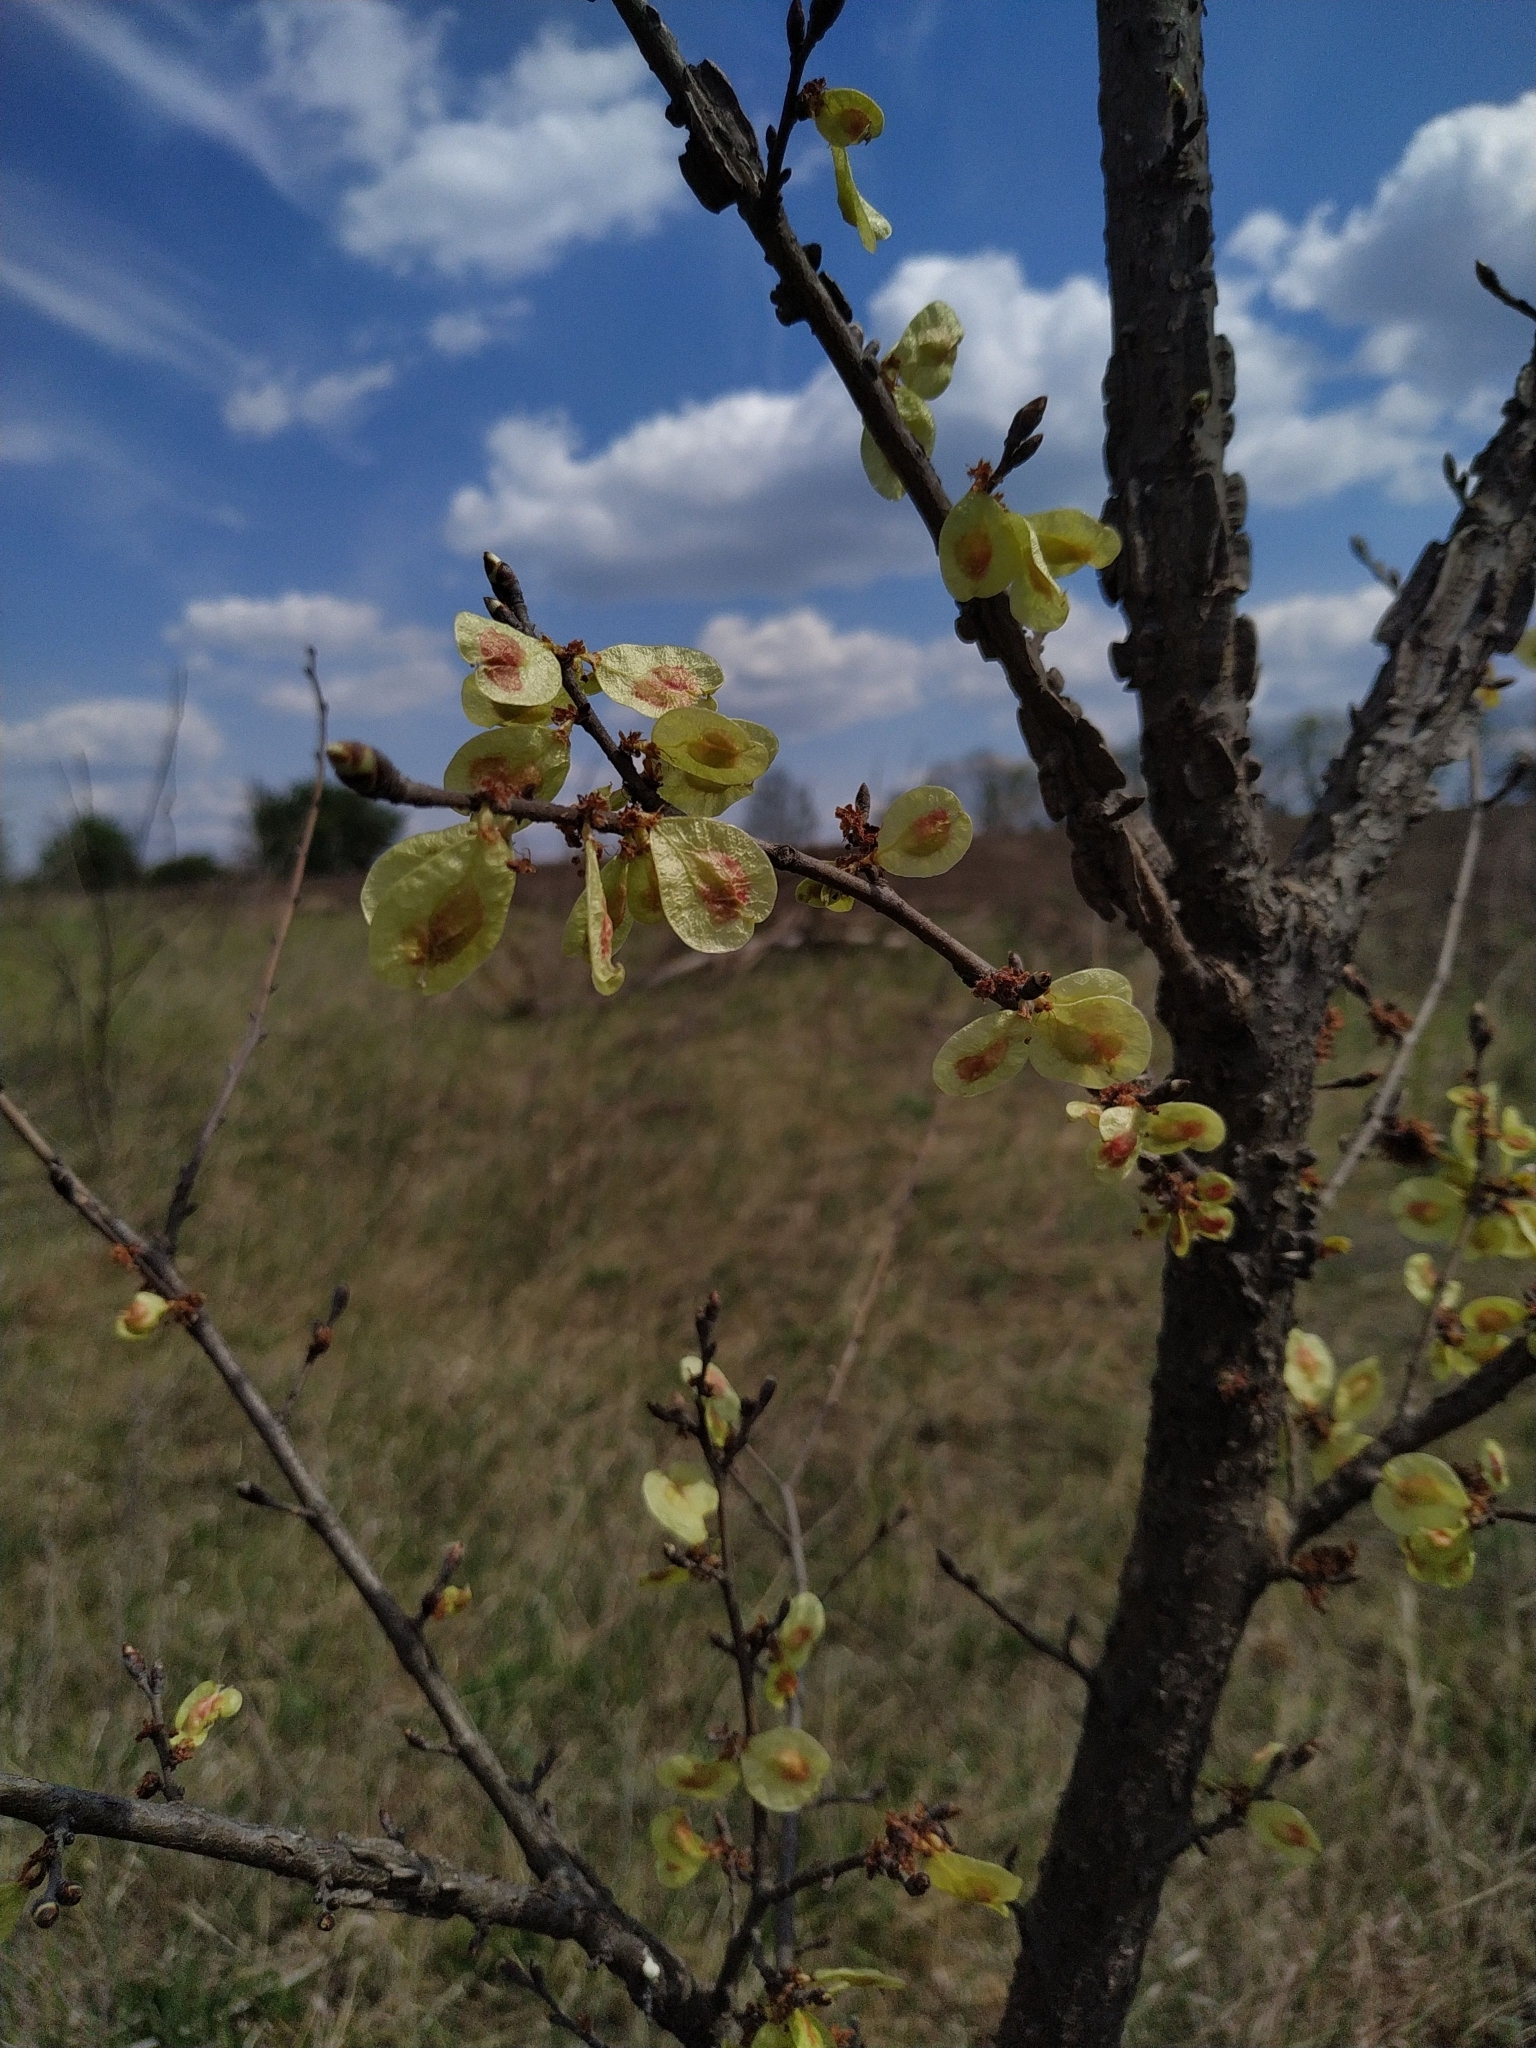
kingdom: Plantae
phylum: Tracheophyta
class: Magnoliopsida
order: Rosales
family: Ulmaceae
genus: Ulmus
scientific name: Ulmus minor
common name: Small-leaved elm
